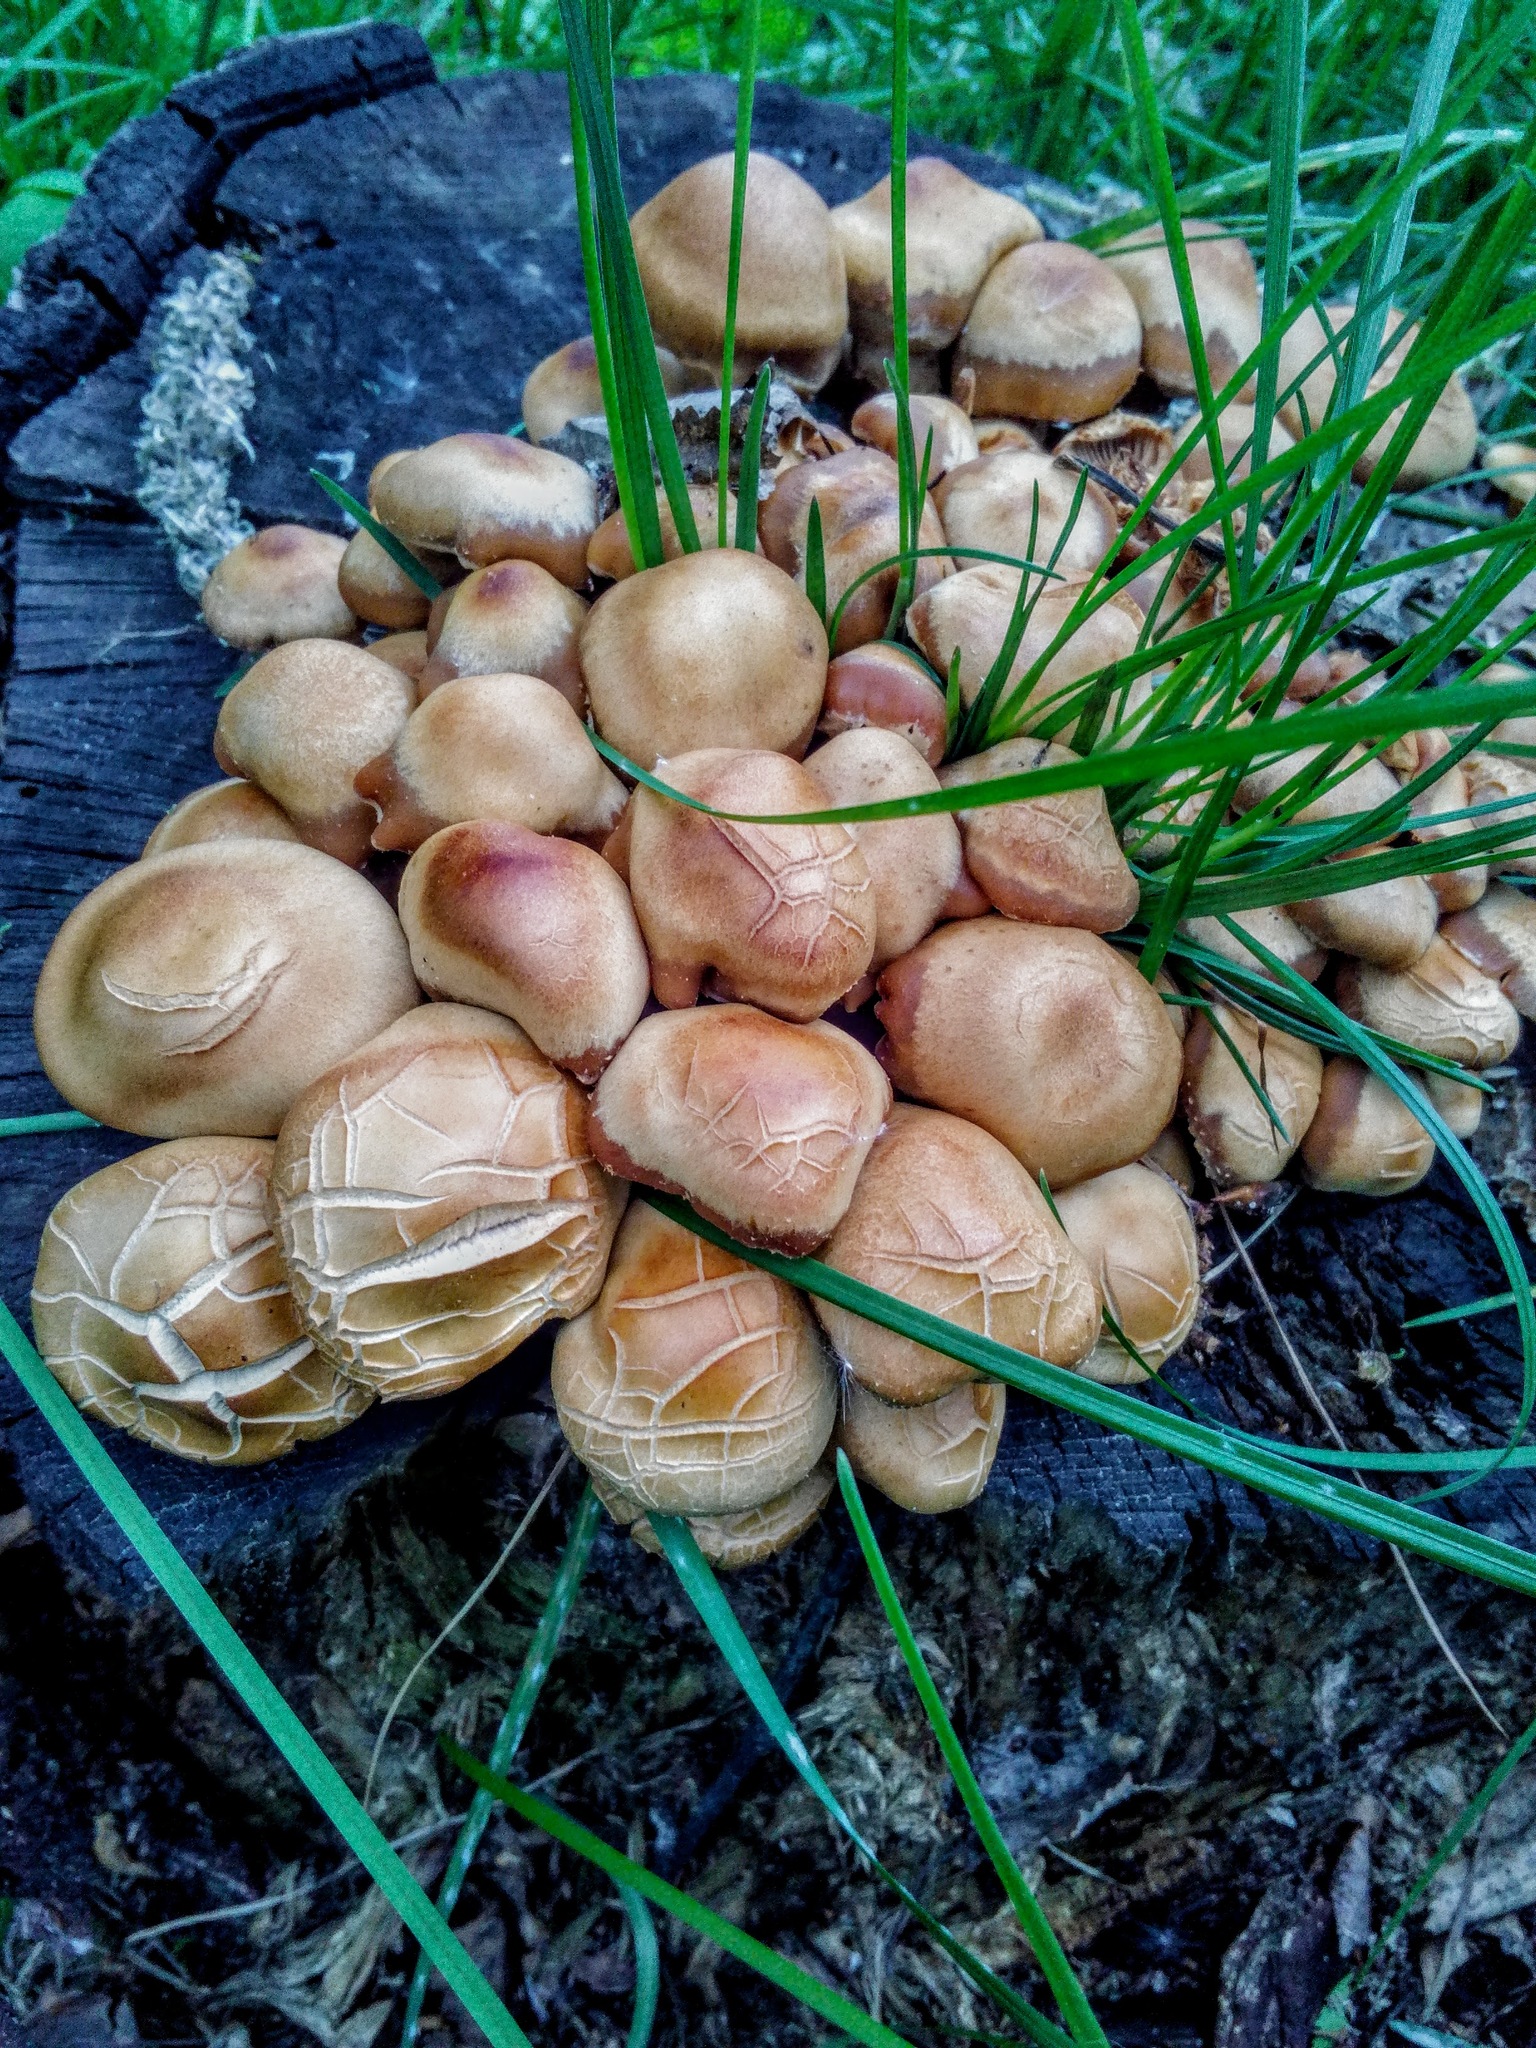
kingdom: Fungi
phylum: Basidiomycota
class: Agaricomycetes
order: Agaricales
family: Strophariaceae
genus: Kuehneromyces
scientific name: Kuehneromyces mutabilis
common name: Sheathed woodtuft
